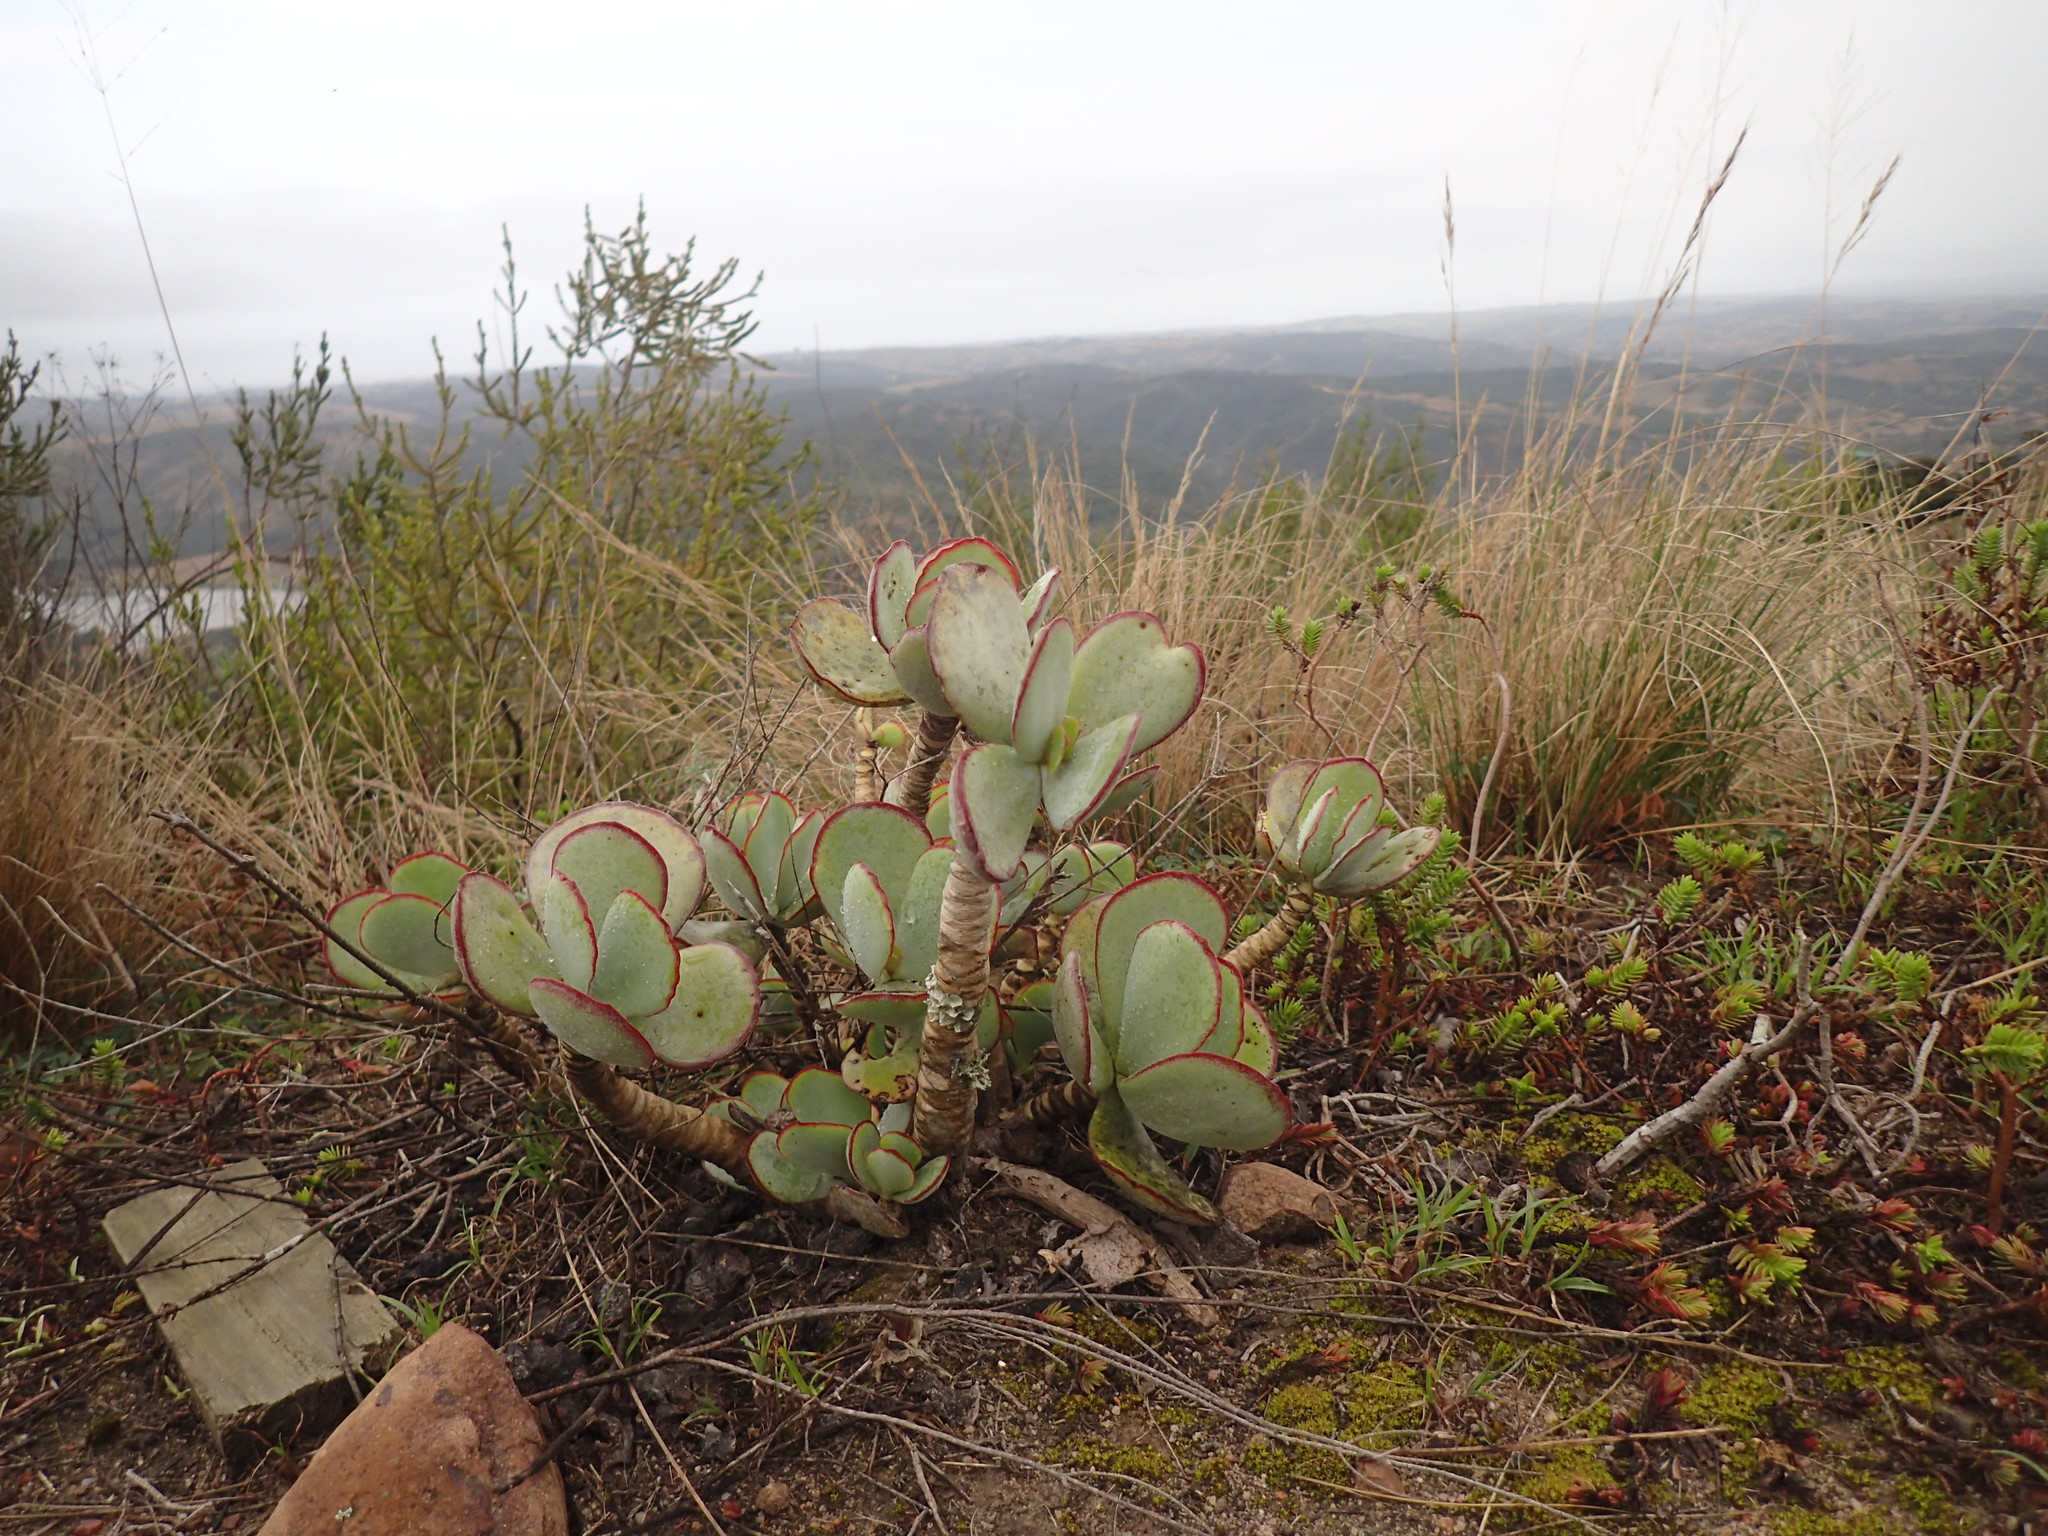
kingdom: Plantae
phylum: Tracheophyta
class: Magnoliopsida
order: Saxifragales
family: Crassulaceae
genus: Cotyledon
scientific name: Cotyledon orbiculata
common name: Pig's ear
